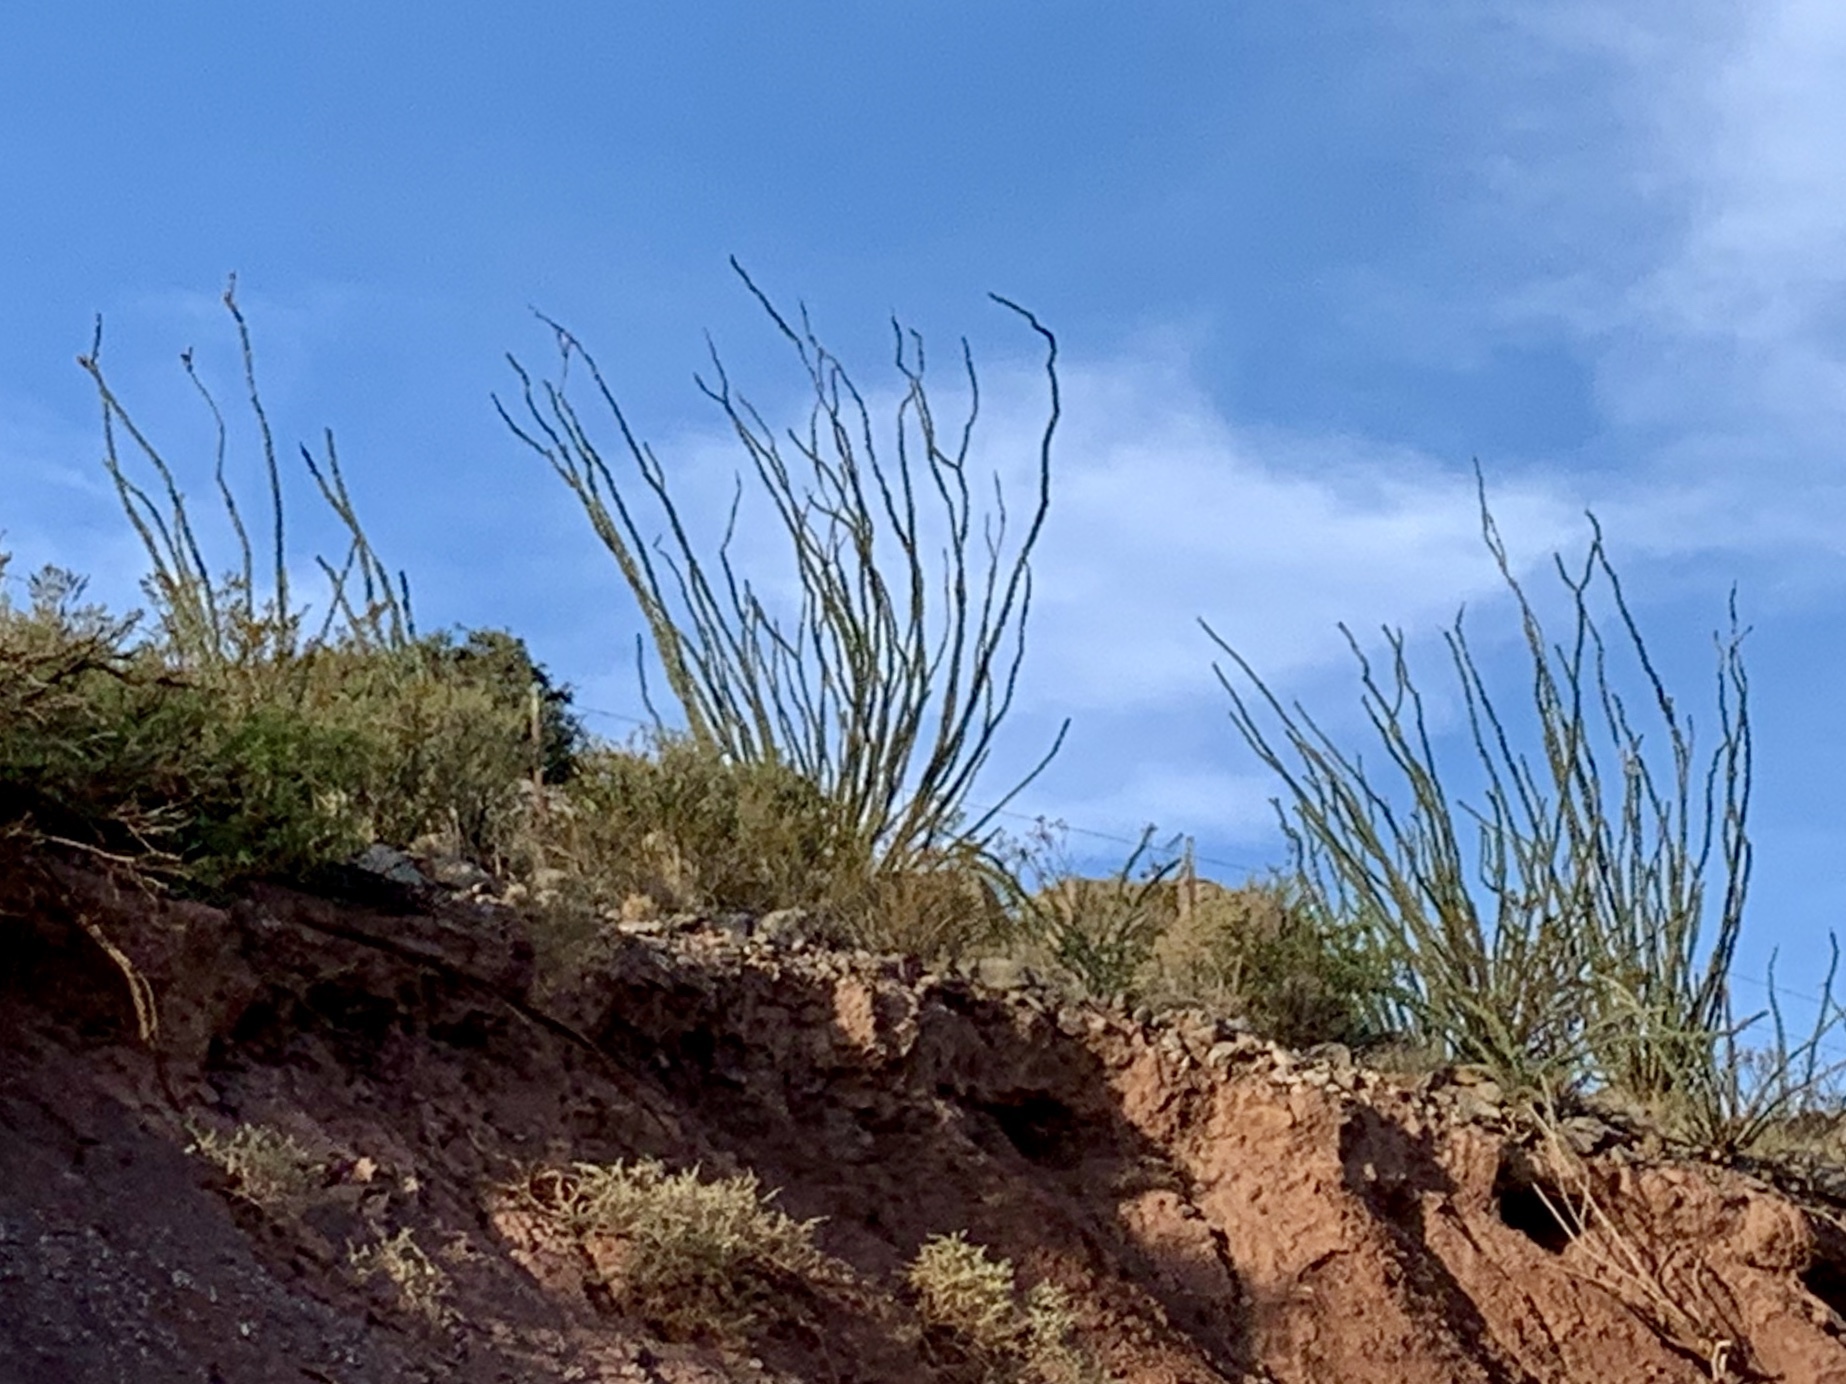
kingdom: Plantae
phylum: Tracheophyta
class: Magnoliopsida
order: Ericales
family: Fouquieriaceae
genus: Fouquieria
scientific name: Fouquieria splendens
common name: Vine-cactus
